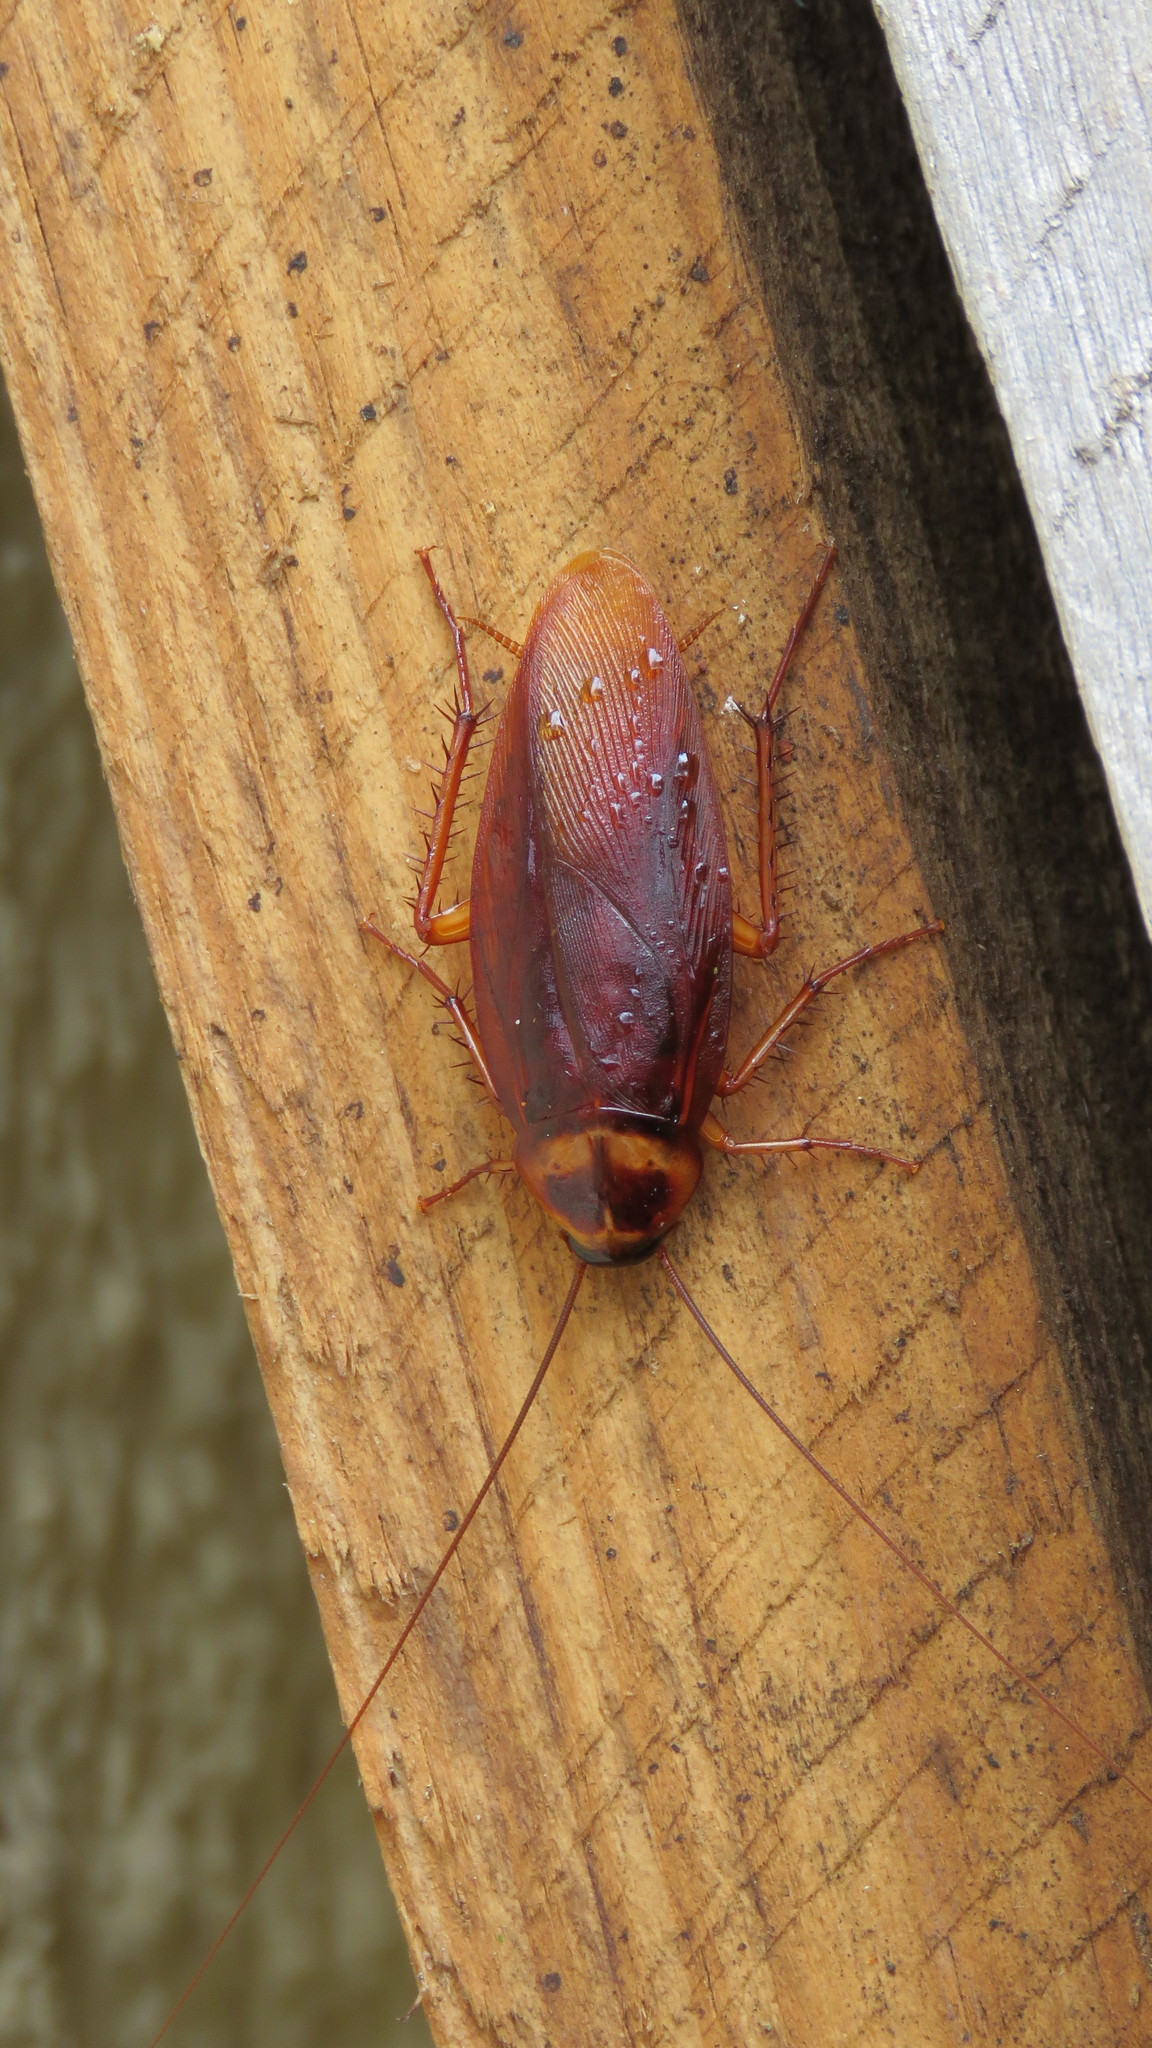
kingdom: Animalia
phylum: Arthropoda
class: Insecta
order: Blattodea
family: Blattidae
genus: Periplaneta
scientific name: Periplaneta americana
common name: American cockroach
